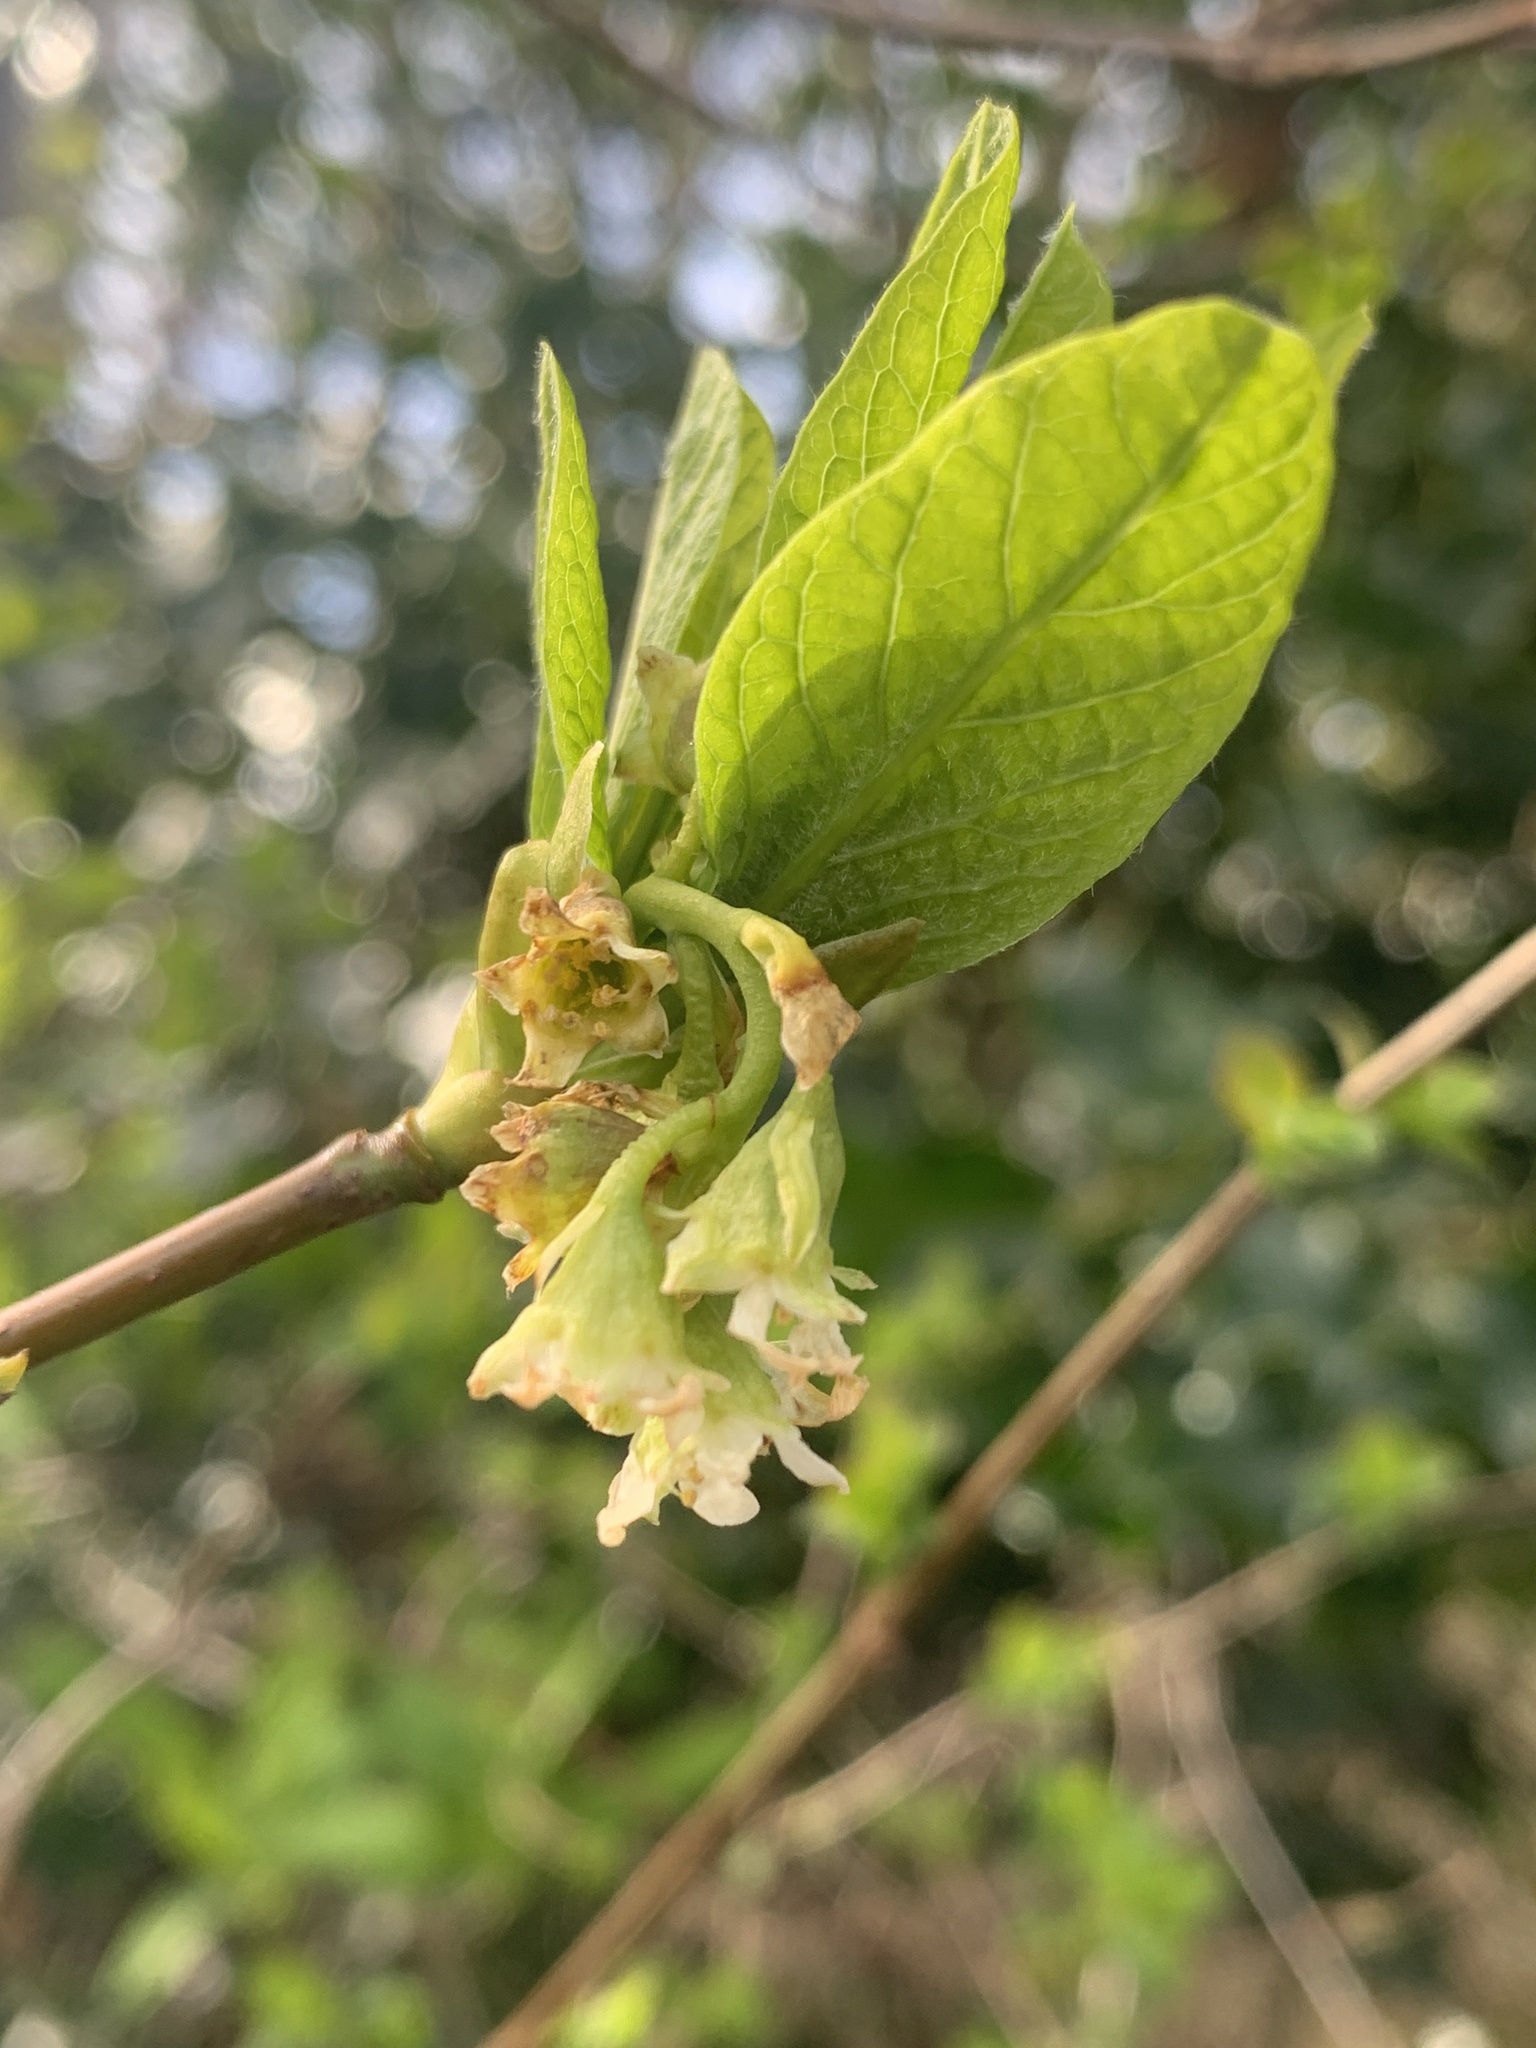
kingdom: Plantae
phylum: Tracheophyta
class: Magnoliopsida
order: Rosales
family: Rosaceae
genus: Oemleria
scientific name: Oemleria cerasiformis
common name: Osoberry
